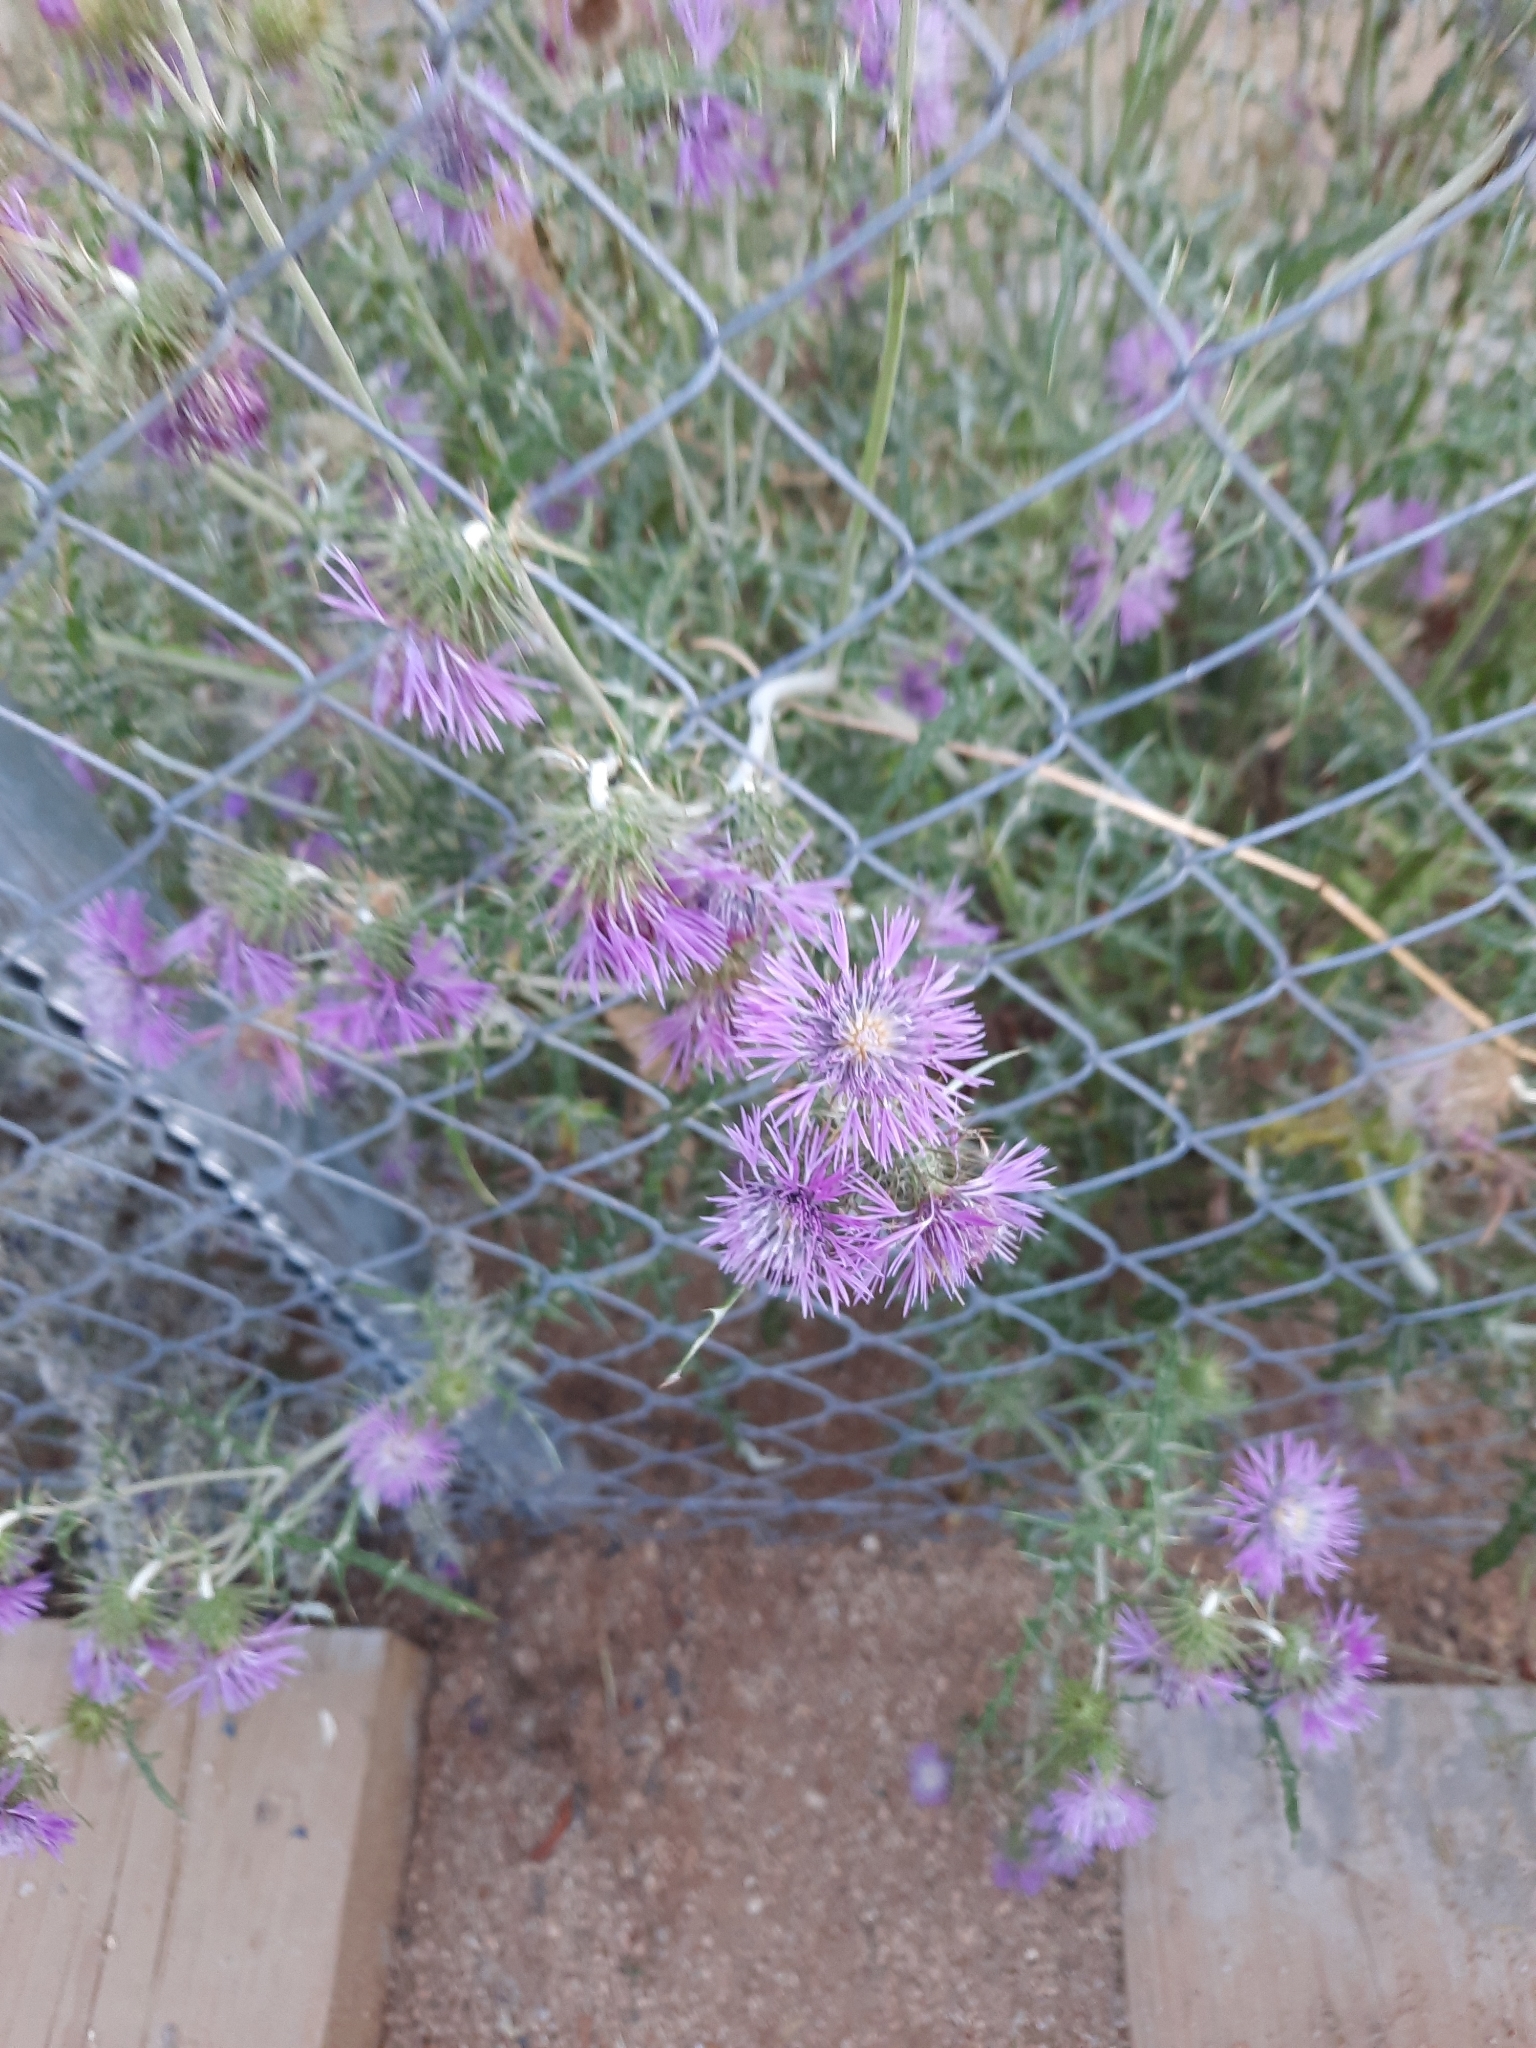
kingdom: Plantae
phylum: Tracheophyta
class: Magnoliopsida
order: Asterales
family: Asteraceae
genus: Galactites
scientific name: Galactites tomentosa
